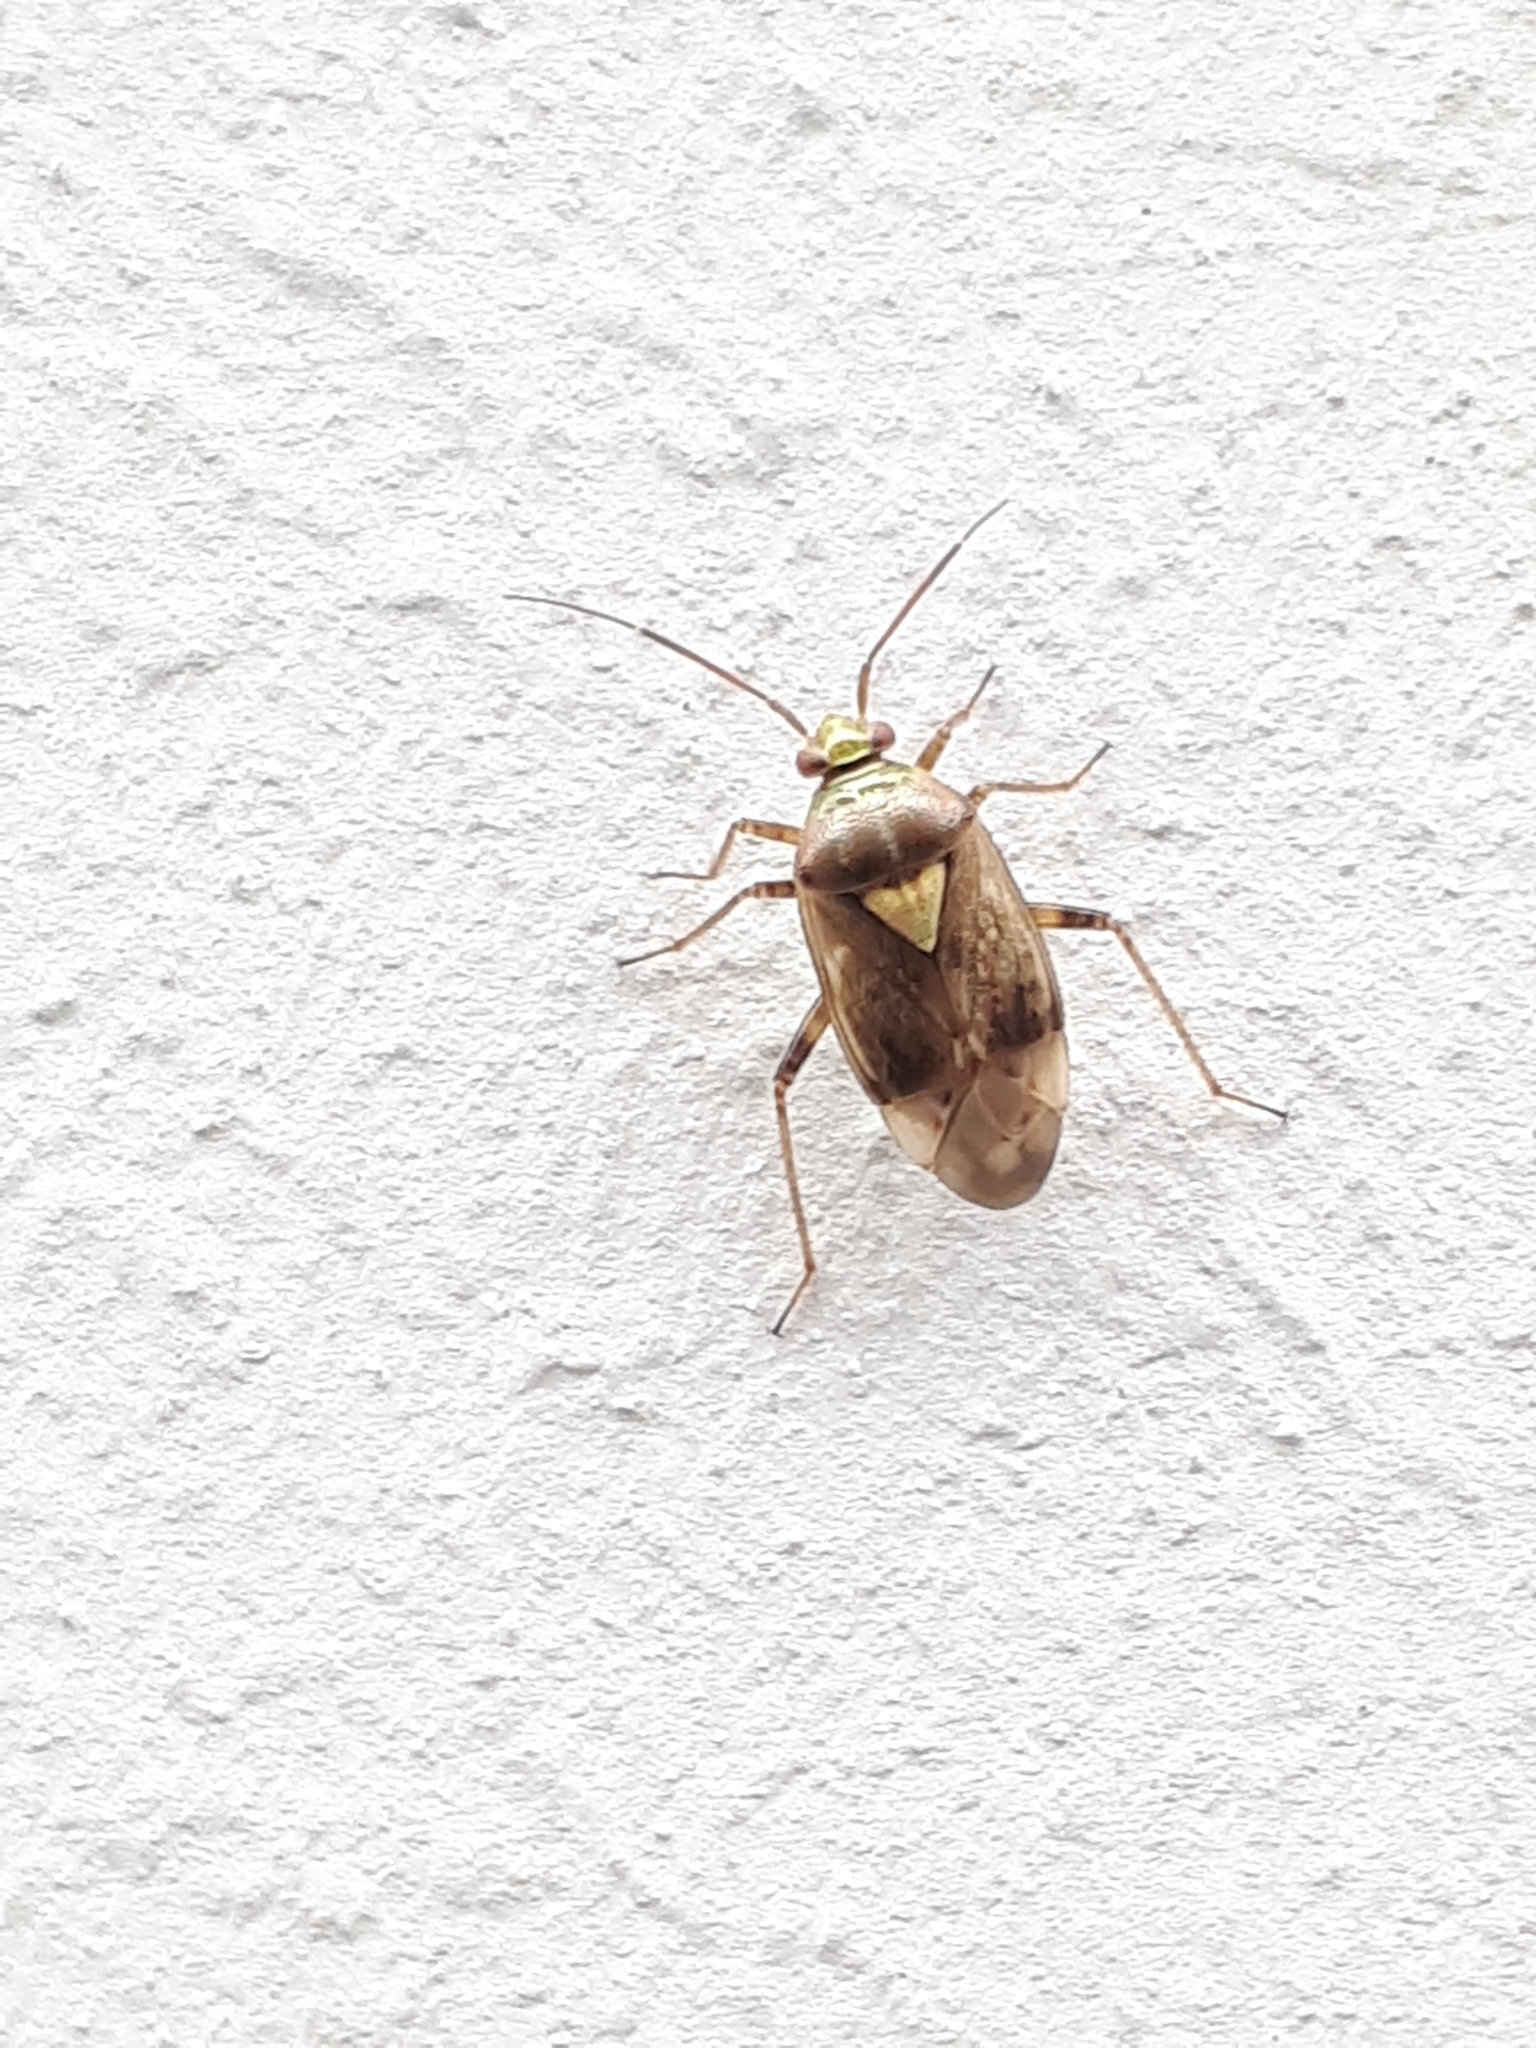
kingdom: Animalia
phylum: Arthropoda
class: Insecta
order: Hemiptera
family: Miridae
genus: Lygus
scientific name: Lygus rugulipennis
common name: European tarnished plant bug
